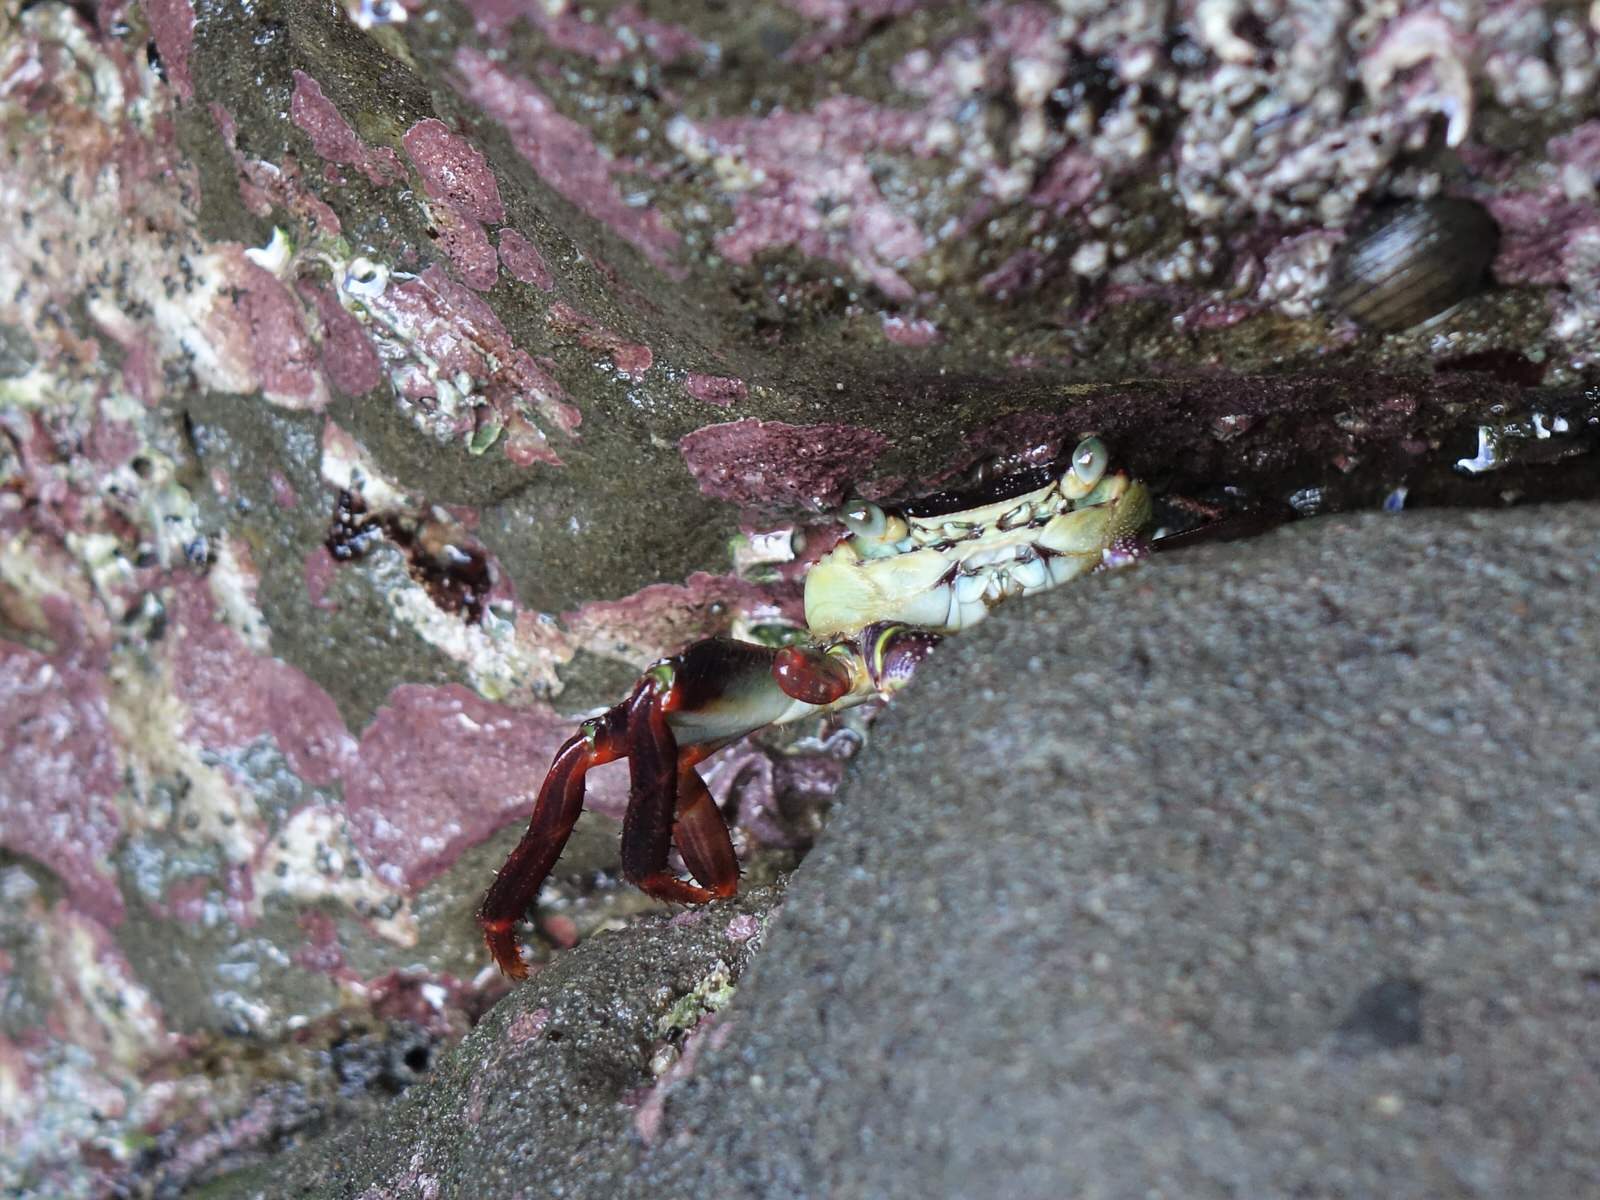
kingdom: Animalia
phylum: Arthropoda
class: Malacostraca
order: Decapoda
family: Grapsidae
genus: Leptograpsus
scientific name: Leptograpsus variegatus
